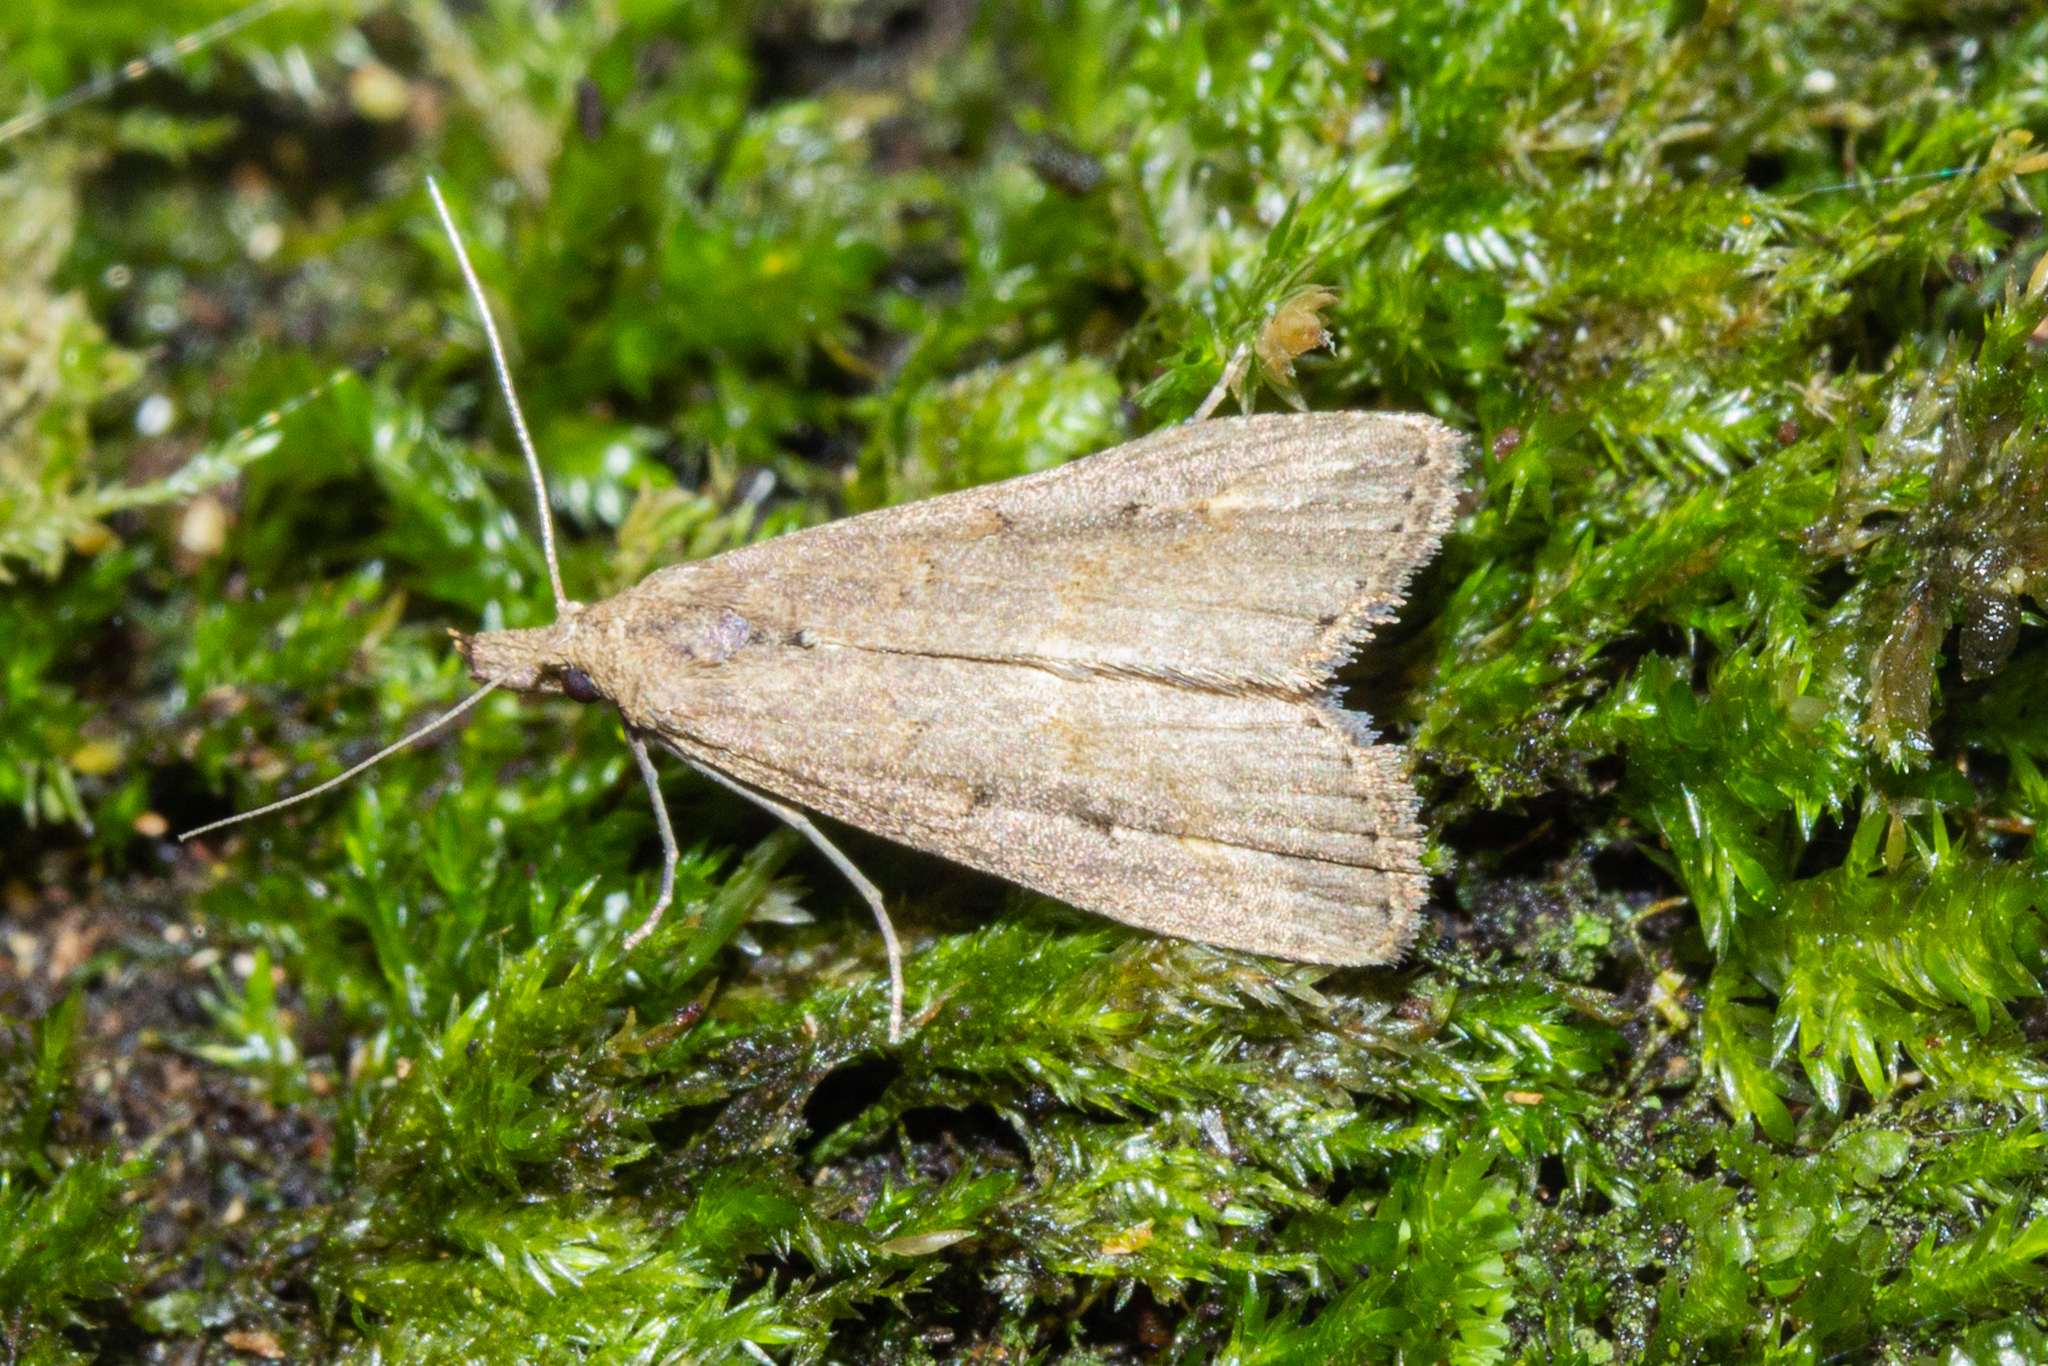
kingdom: Animalia
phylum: Arthropoda
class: Insecta
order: Lepidoptera
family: Erebidae
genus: Schrankia
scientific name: Schrankia costaestrigalis
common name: Pinion-streaked snout
